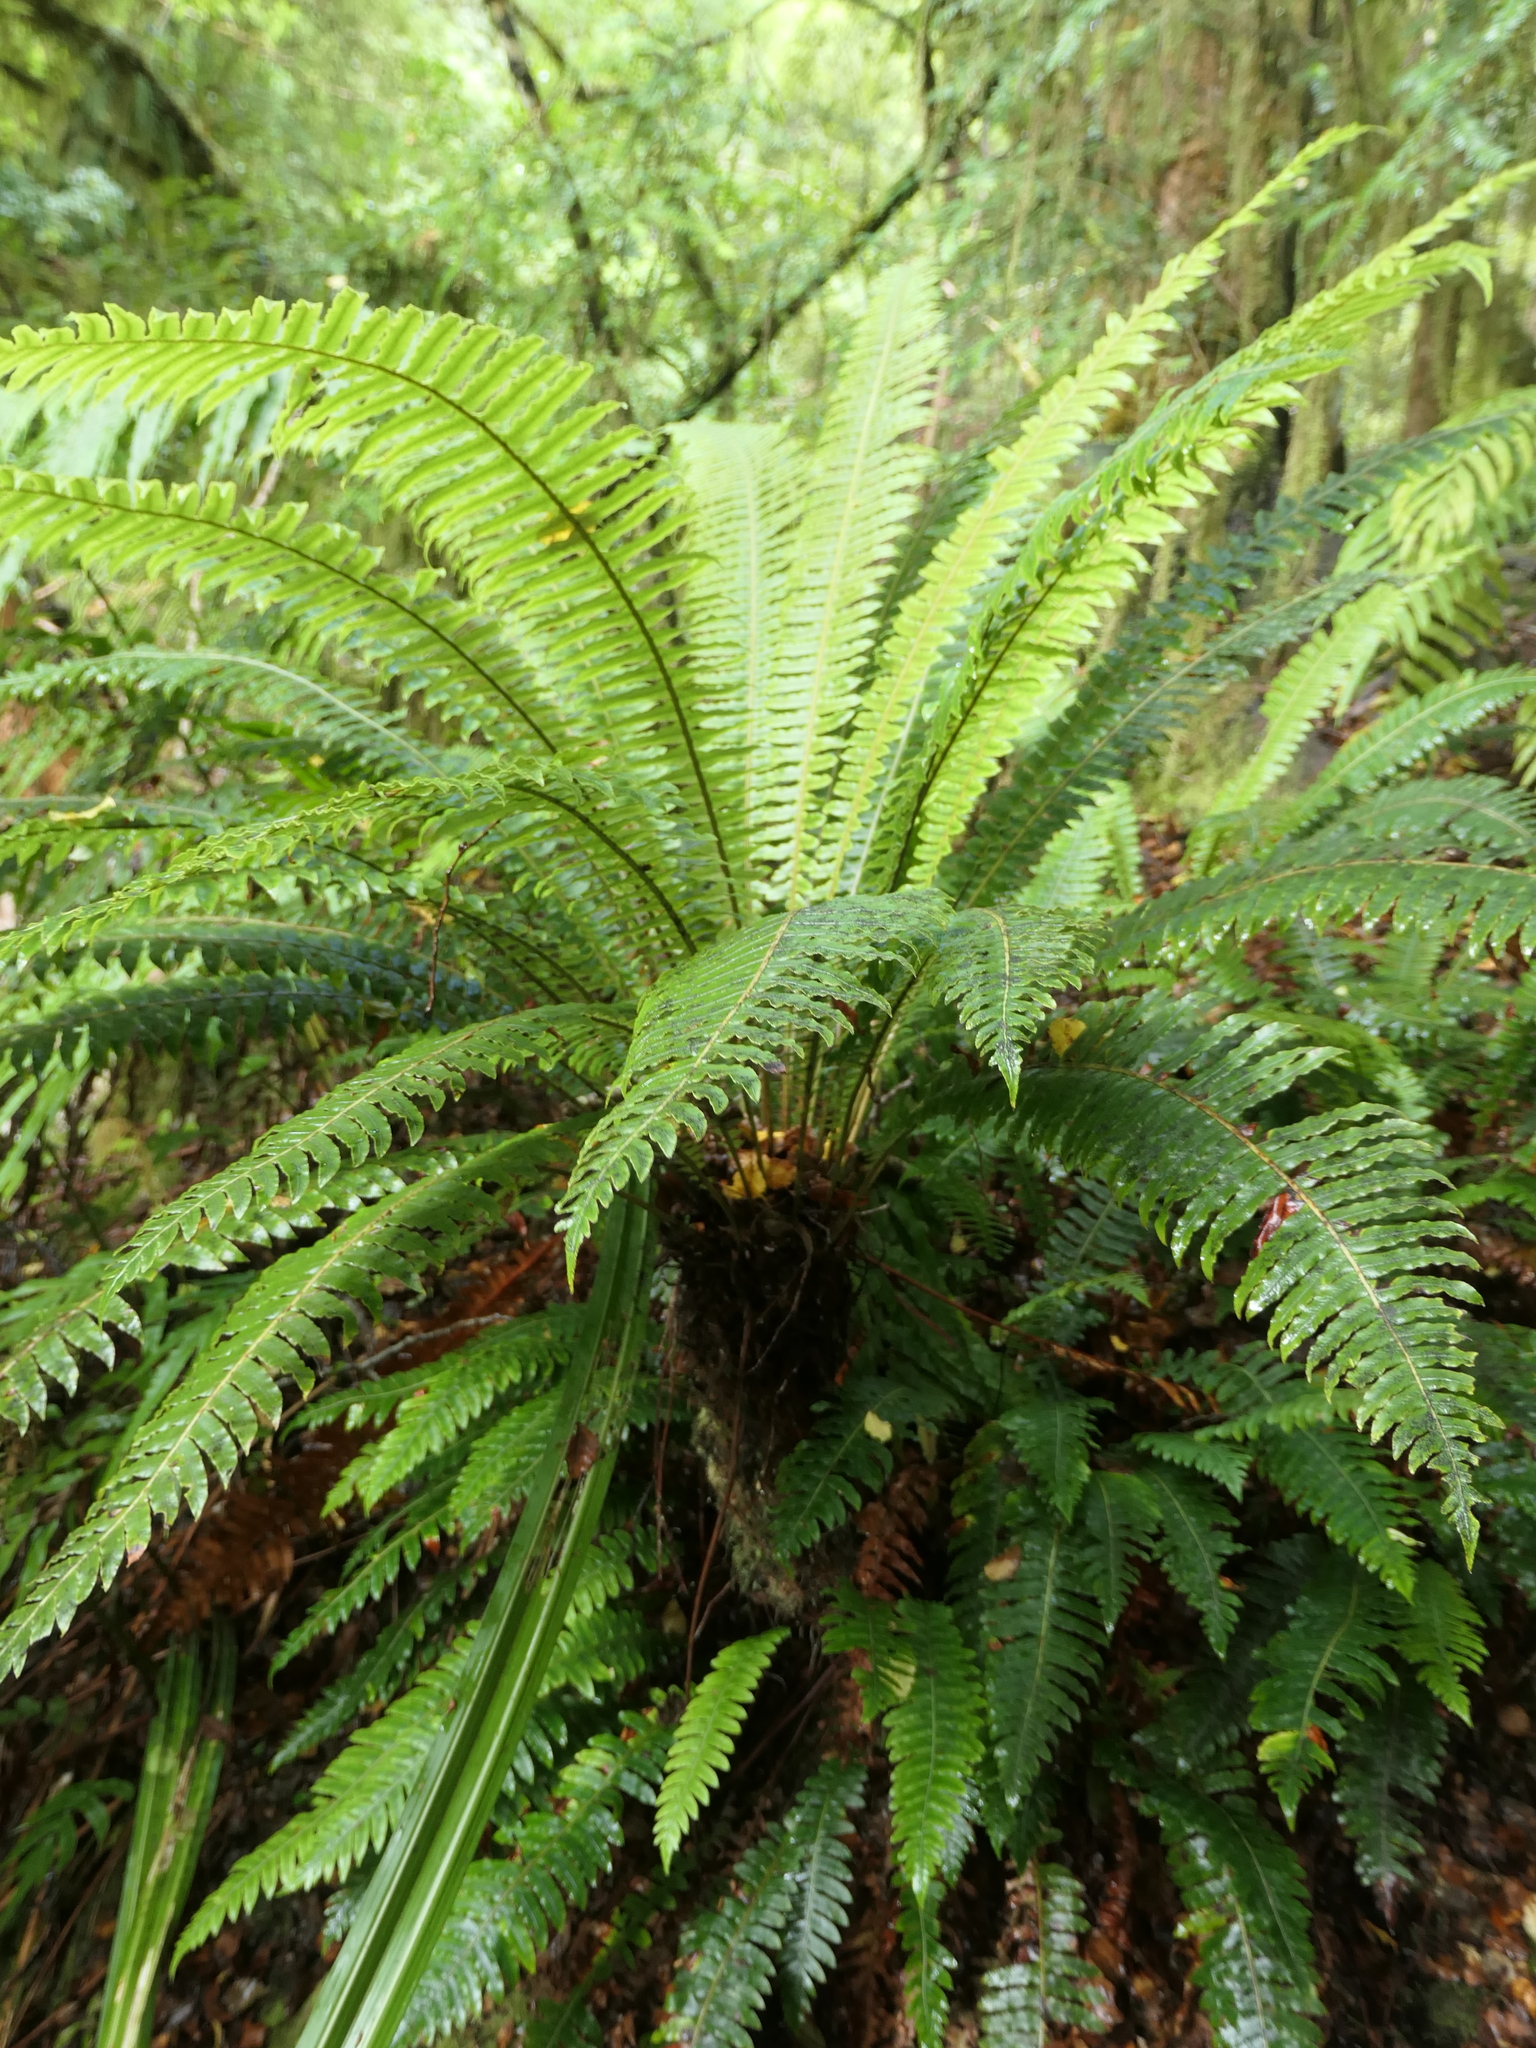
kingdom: Plantae
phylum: Tracheophyta
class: Polypodiopsida
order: Polypodiales
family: Blechnaceae
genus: Lomaria
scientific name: Lomaria discolor
